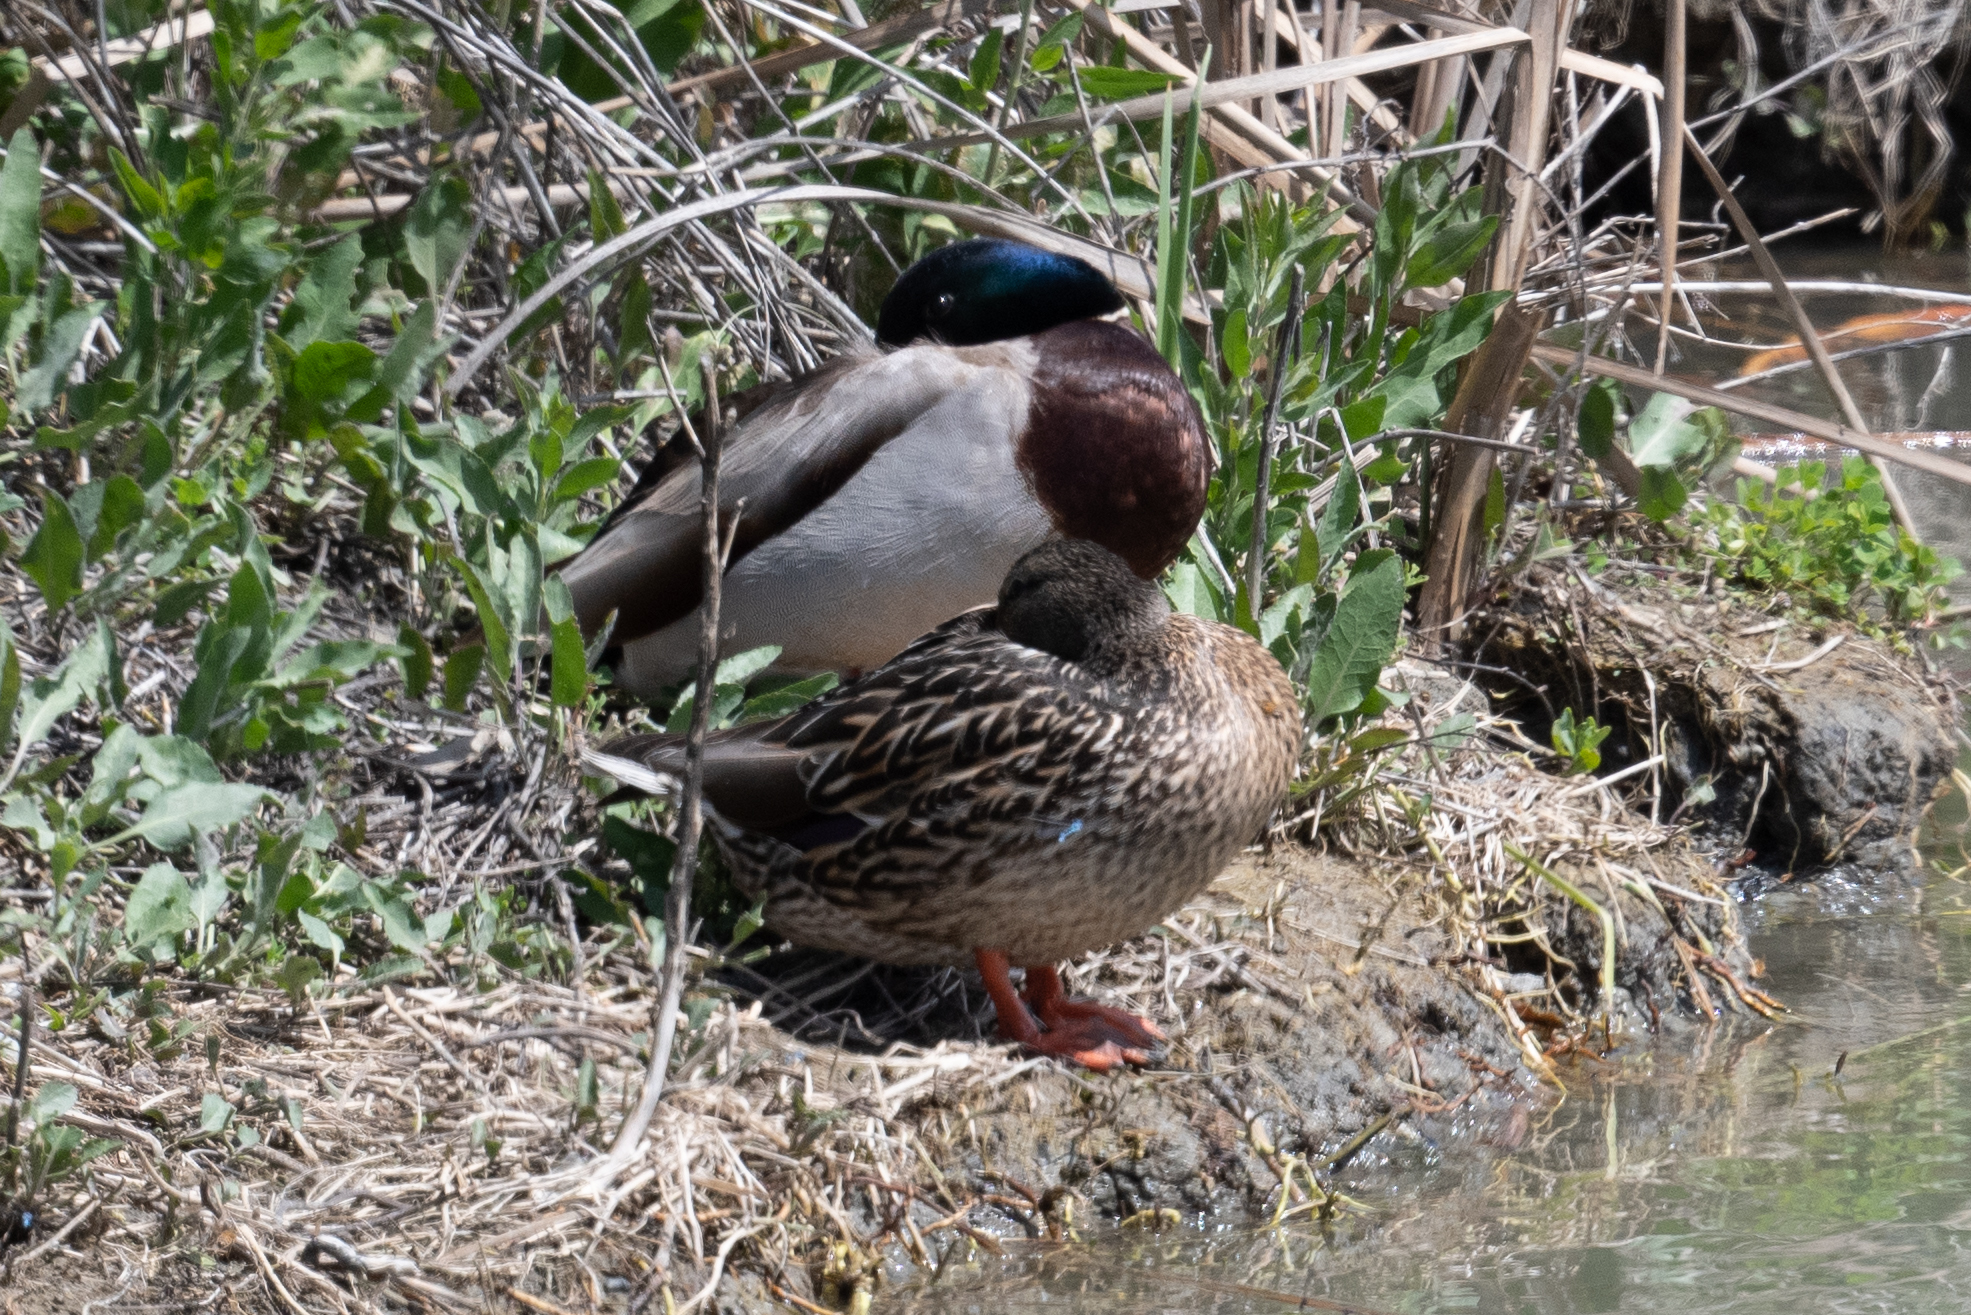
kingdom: Animalia
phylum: Chordata
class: Aves
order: Anseriformes
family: Anatidae
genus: Anas
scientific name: Anas platyrhynchos
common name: Mallard
